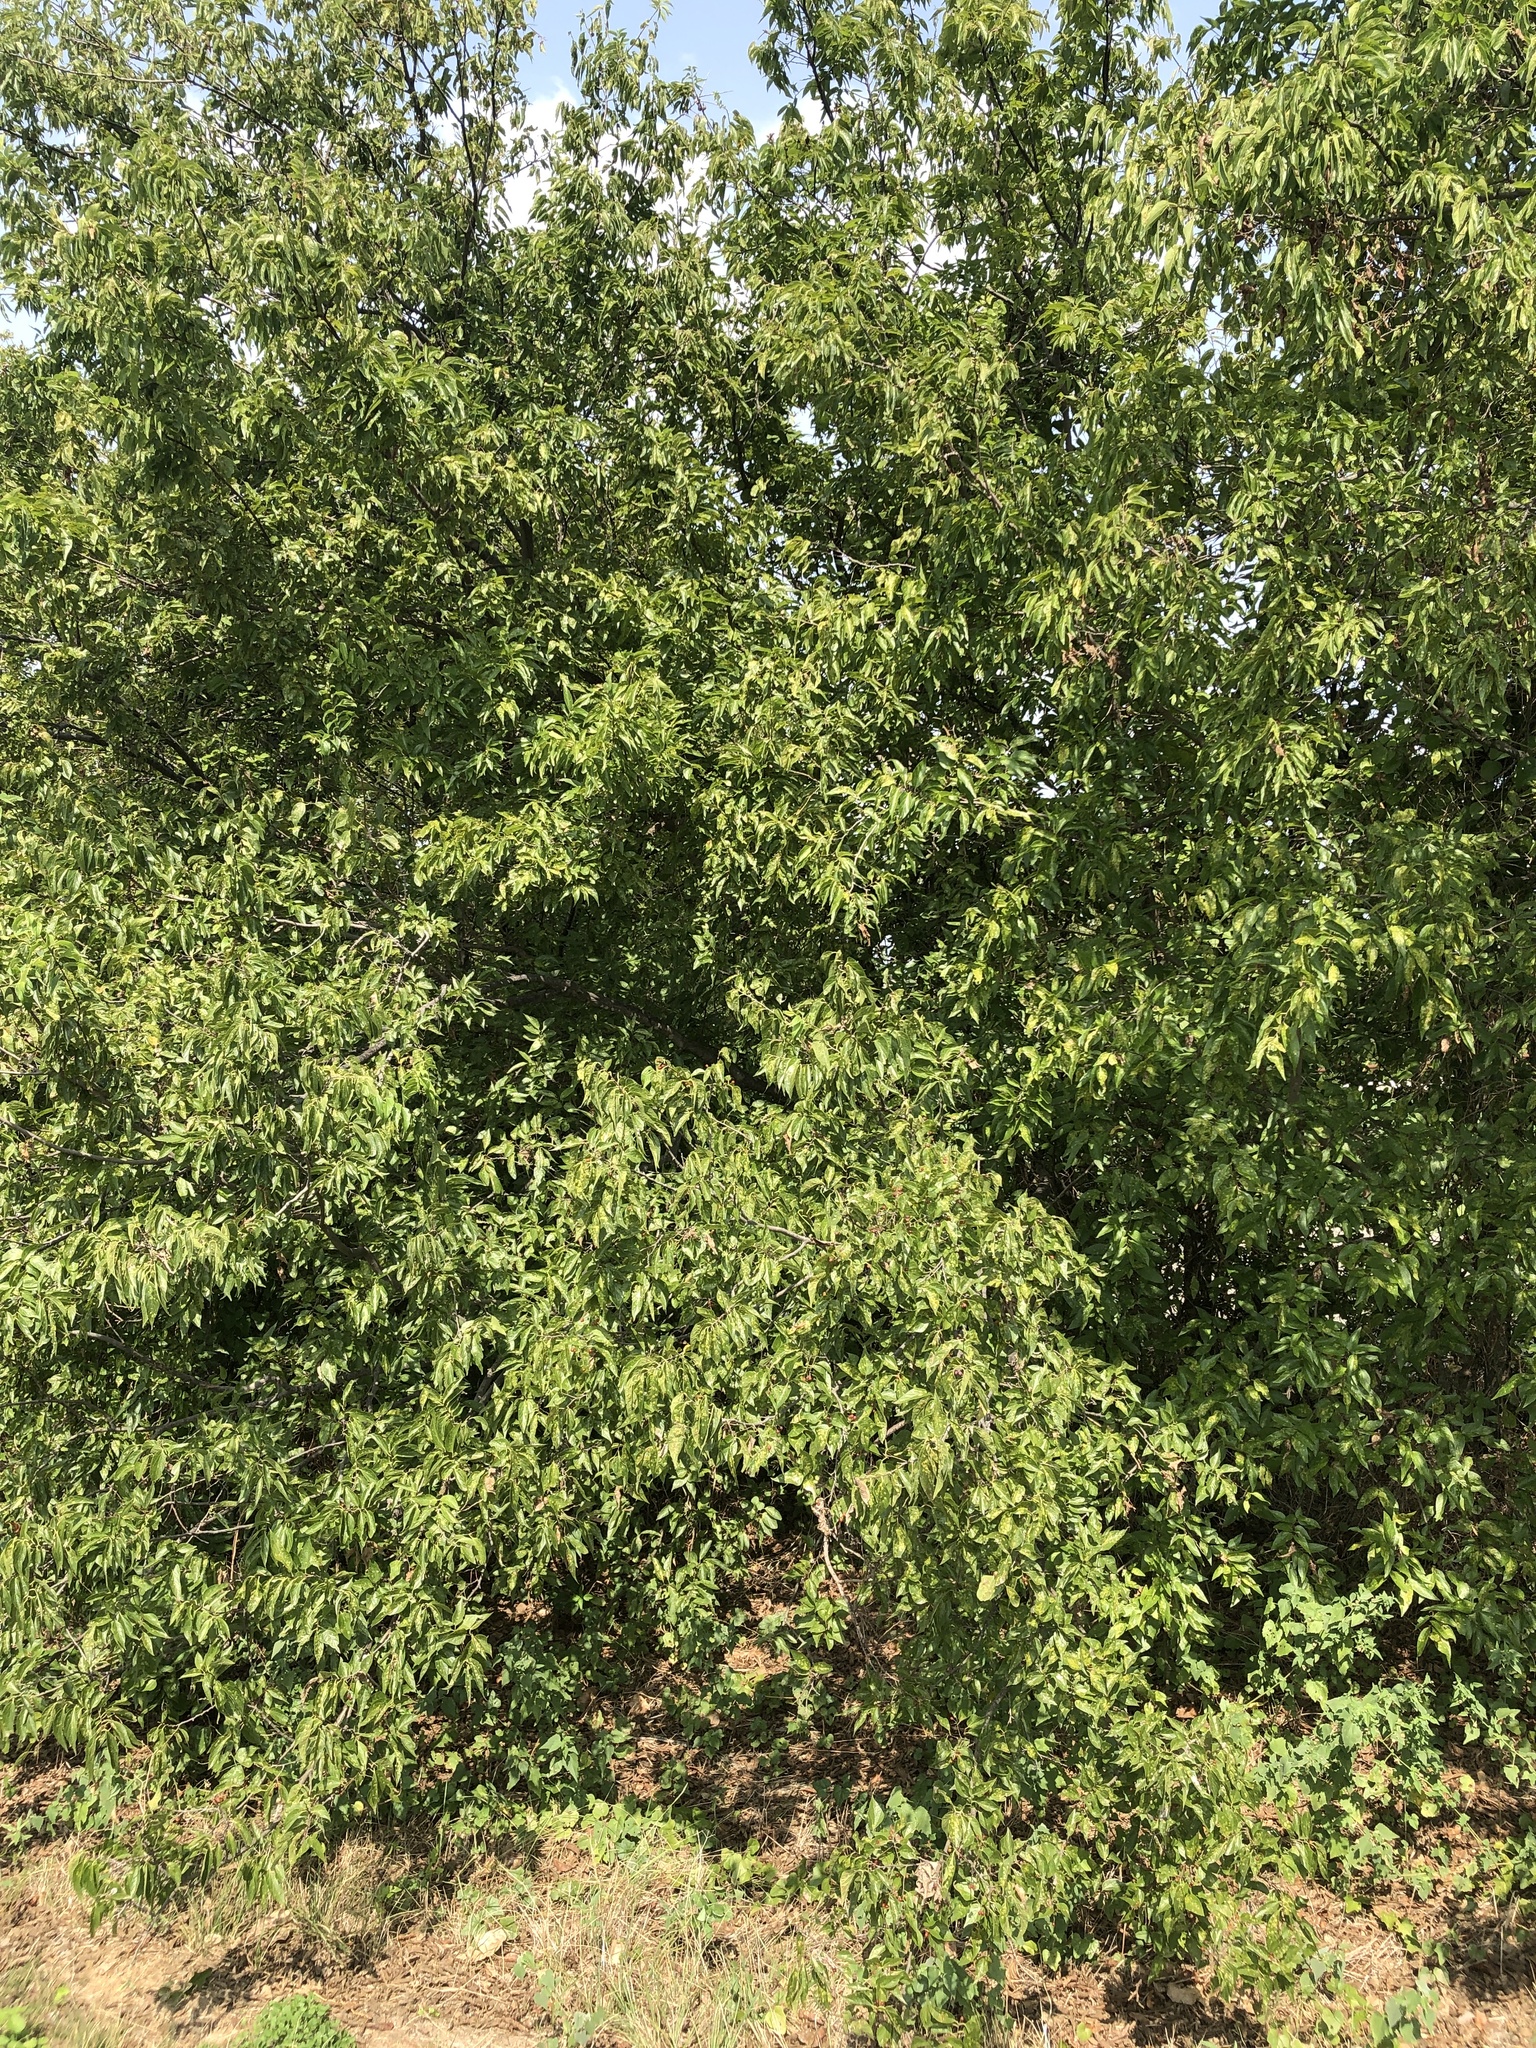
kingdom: Plantae
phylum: Tracheophyta
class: Magnoliopsida
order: Rosales
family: Cannabaceae
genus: Celtis
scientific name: Celtis laevigata
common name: Sugarberry
